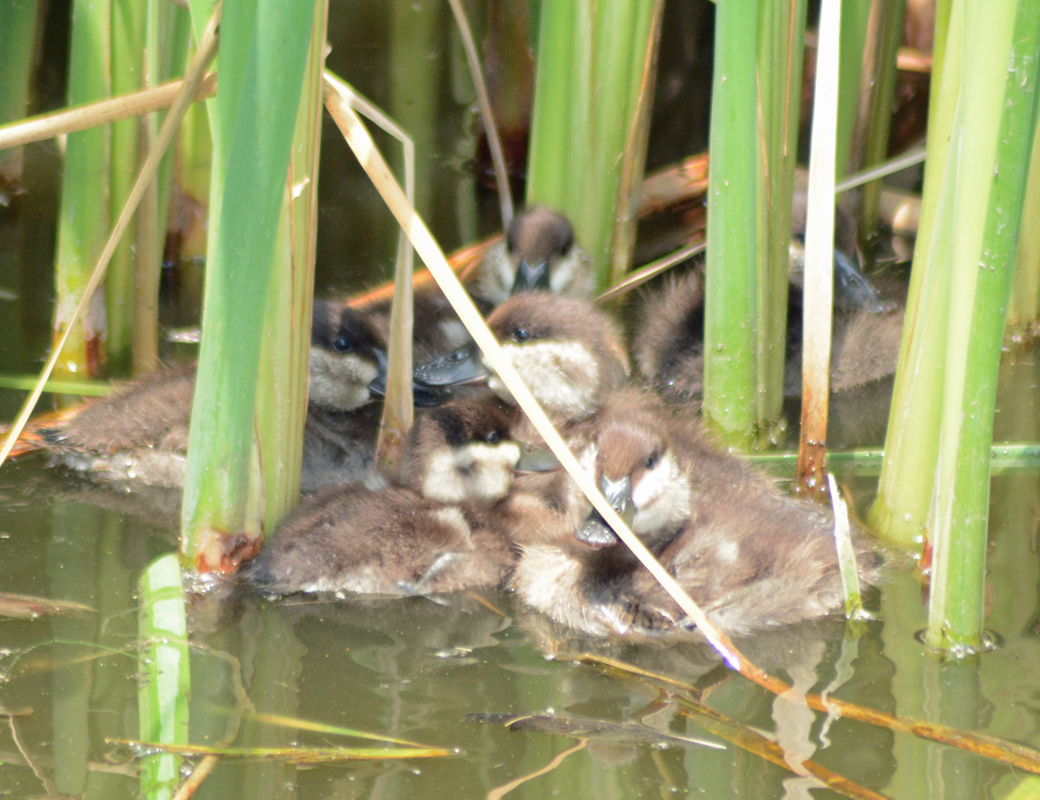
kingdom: Animalia
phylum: Chordata
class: Aves
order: Anseriformes
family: Anatidae
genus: Oxyura
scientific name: Oxyura jamaicensis
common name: Ruddy duck
